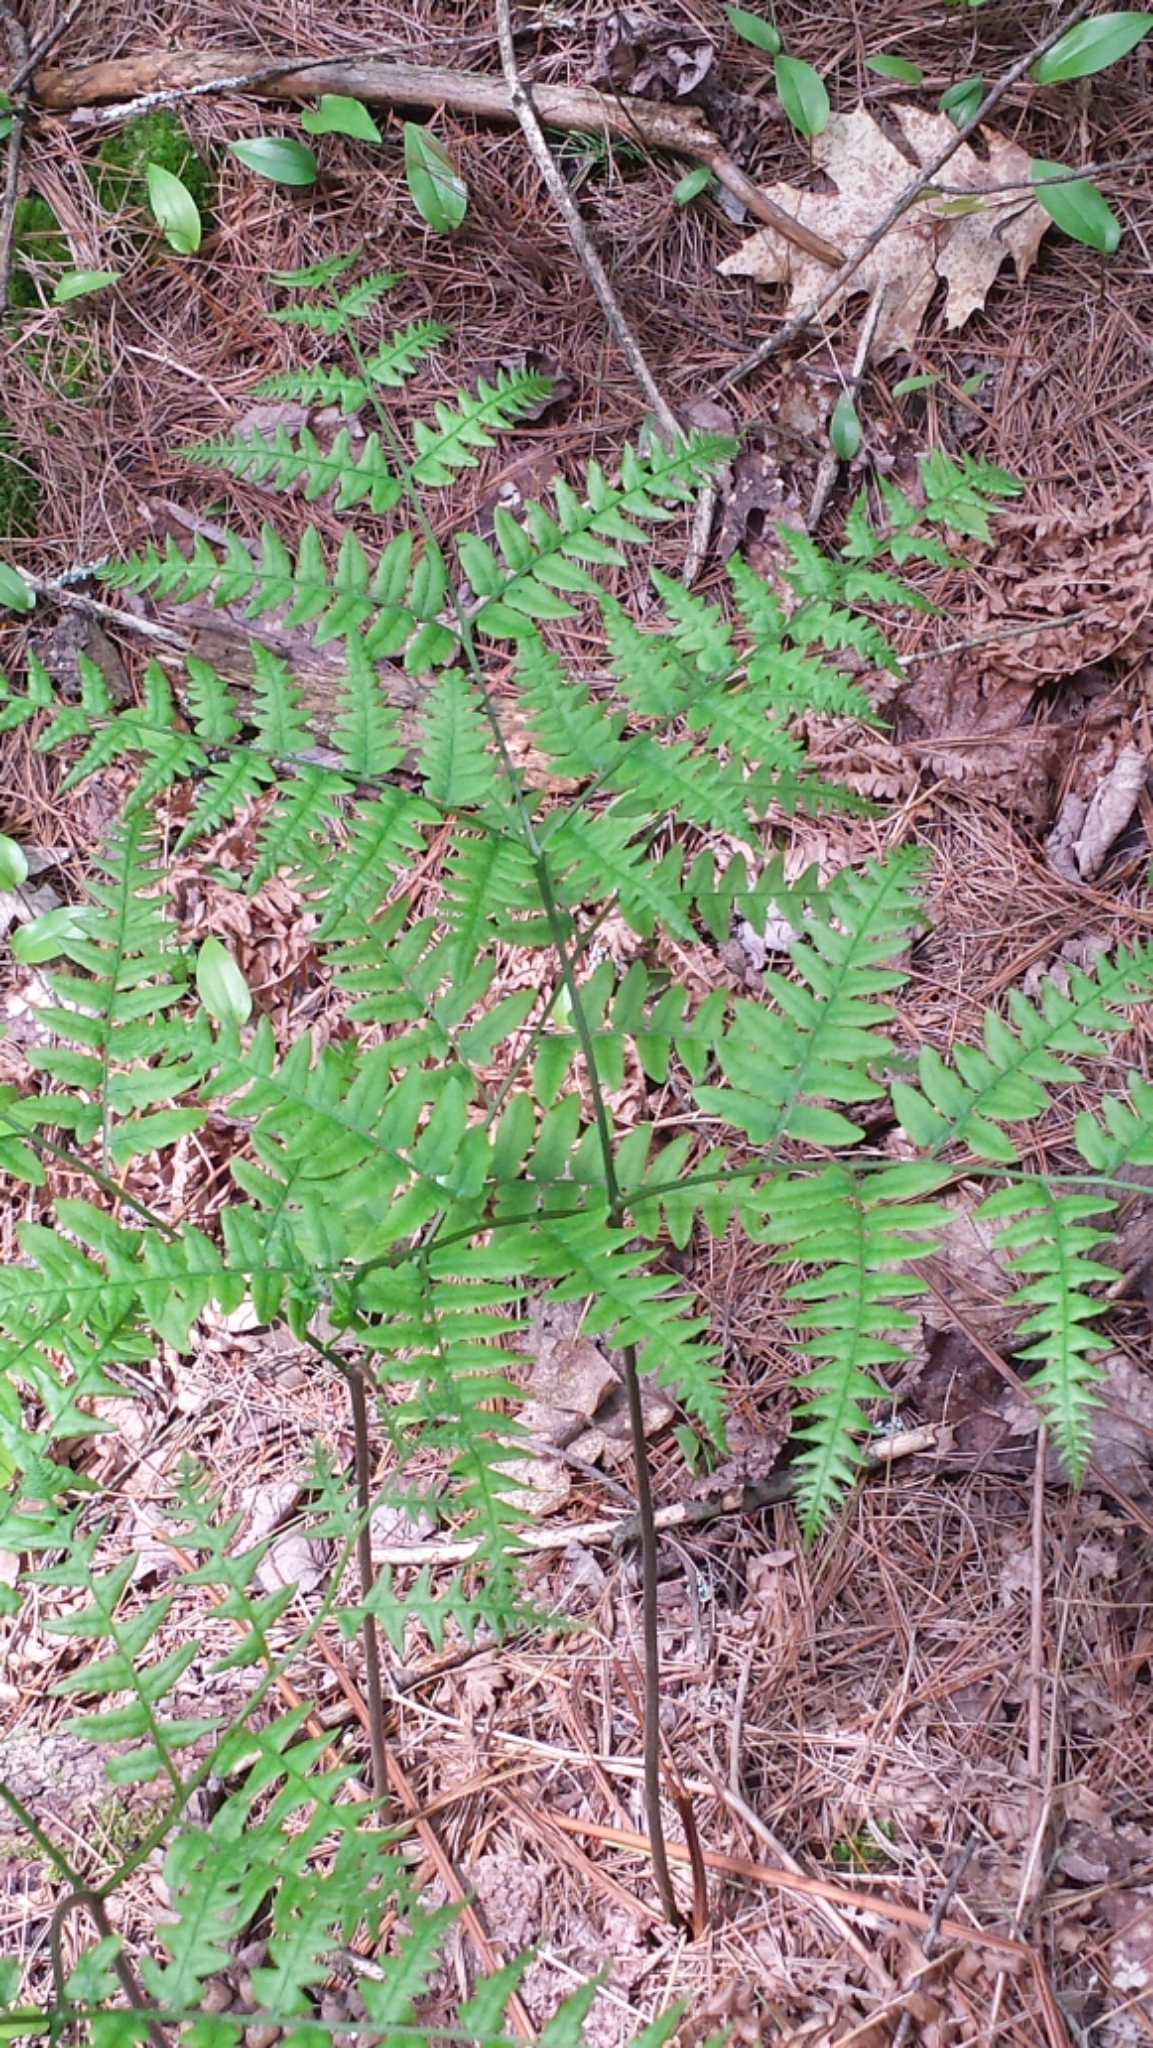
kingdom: Plantae
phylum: Tracheophyta
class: Polypodiopsida
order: Polypodiales
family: Dennstaedtiaceae
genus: Pteridium
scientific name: Pteridium aquilinum
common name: Bracken
